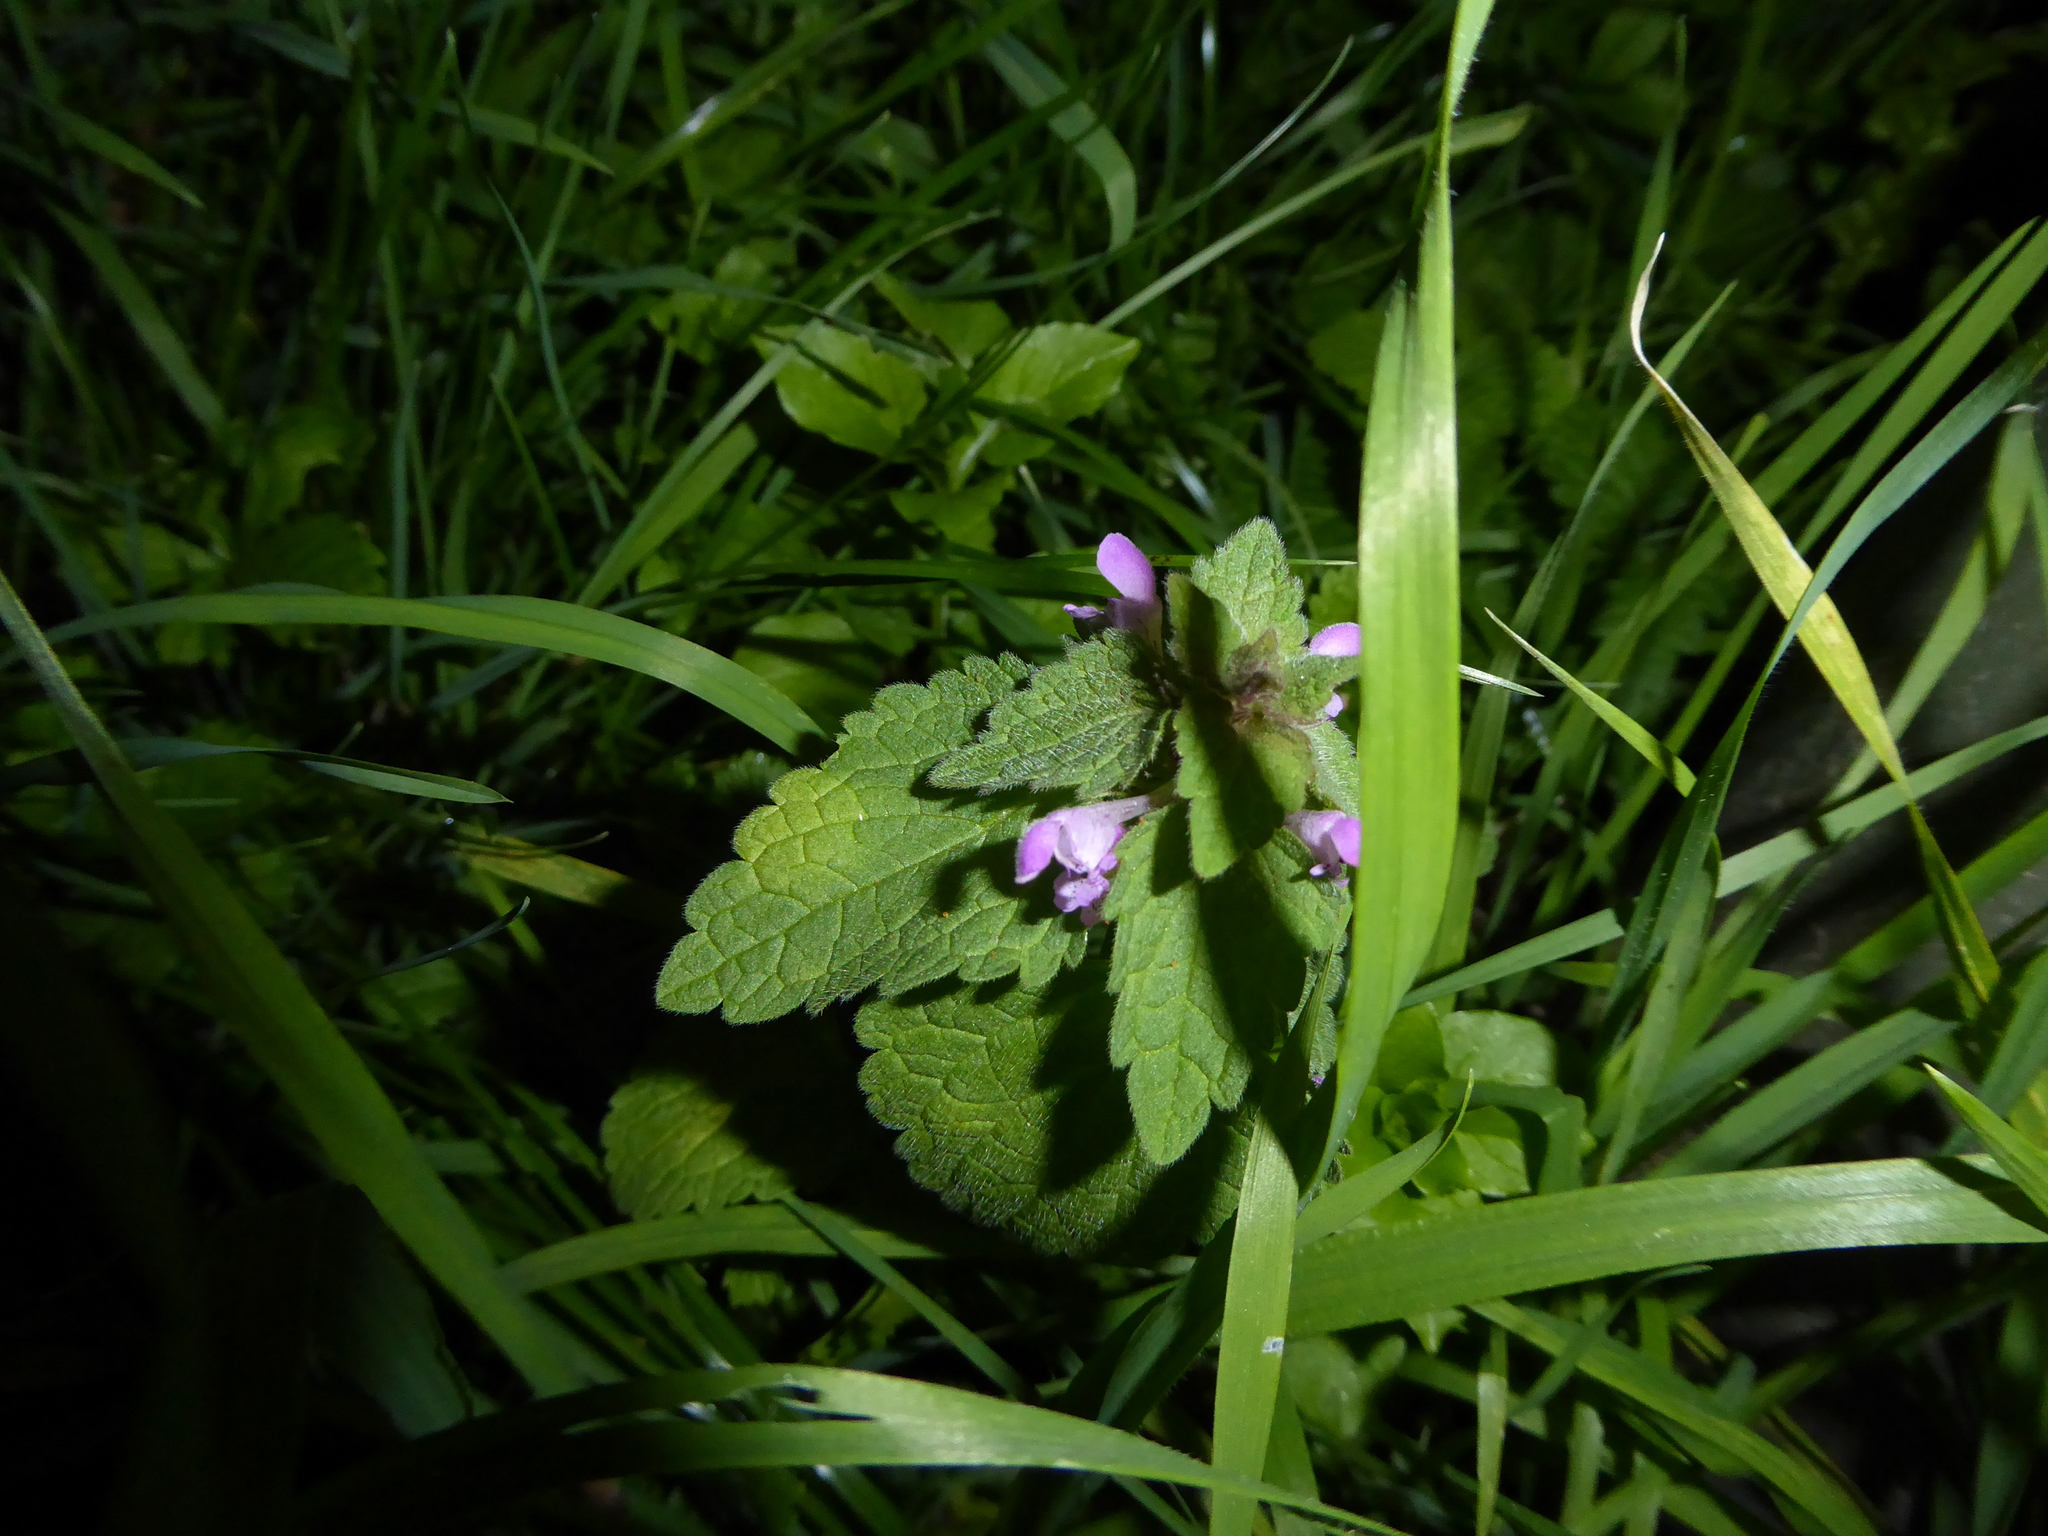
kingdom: Plantae
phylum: Tracheophyta
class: Magnoliopsida
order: Lamiales
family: Lamiaceae
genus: Lamium
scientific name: Lamium purpureum
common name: Red dead-nettle
